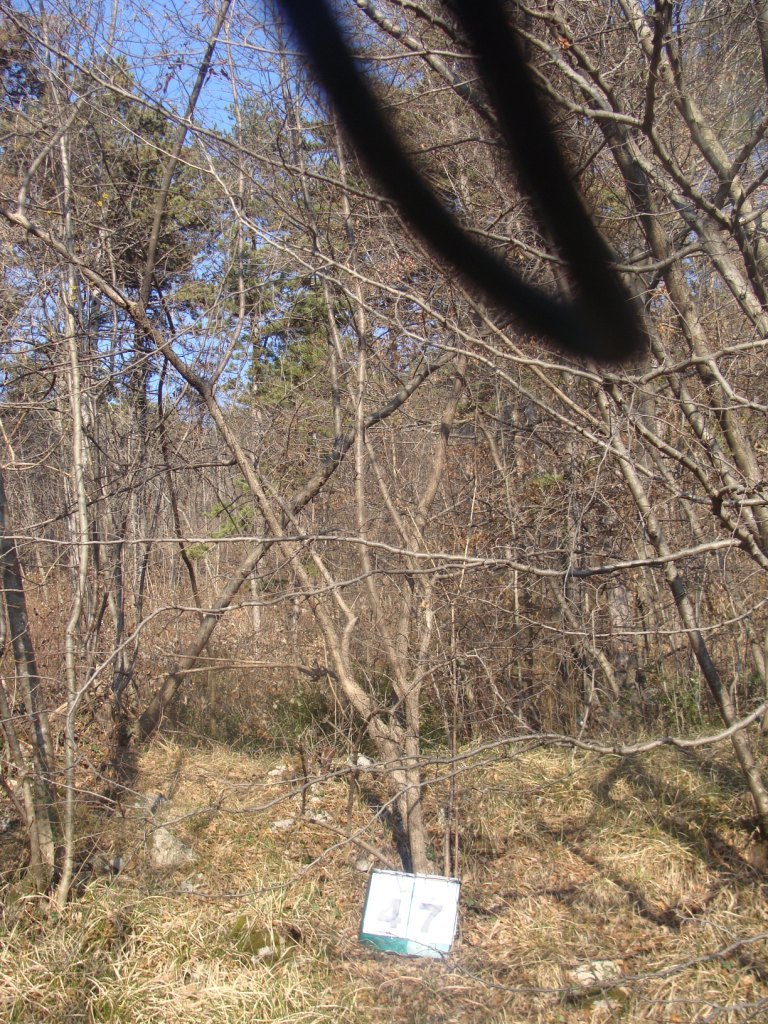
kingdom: Plantae
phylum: Tracheophyta
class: Magnoliopsida
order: Cornales
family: Cornaceae
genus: Cornus
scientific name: Cornus mas
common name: Cornelian-cherry
